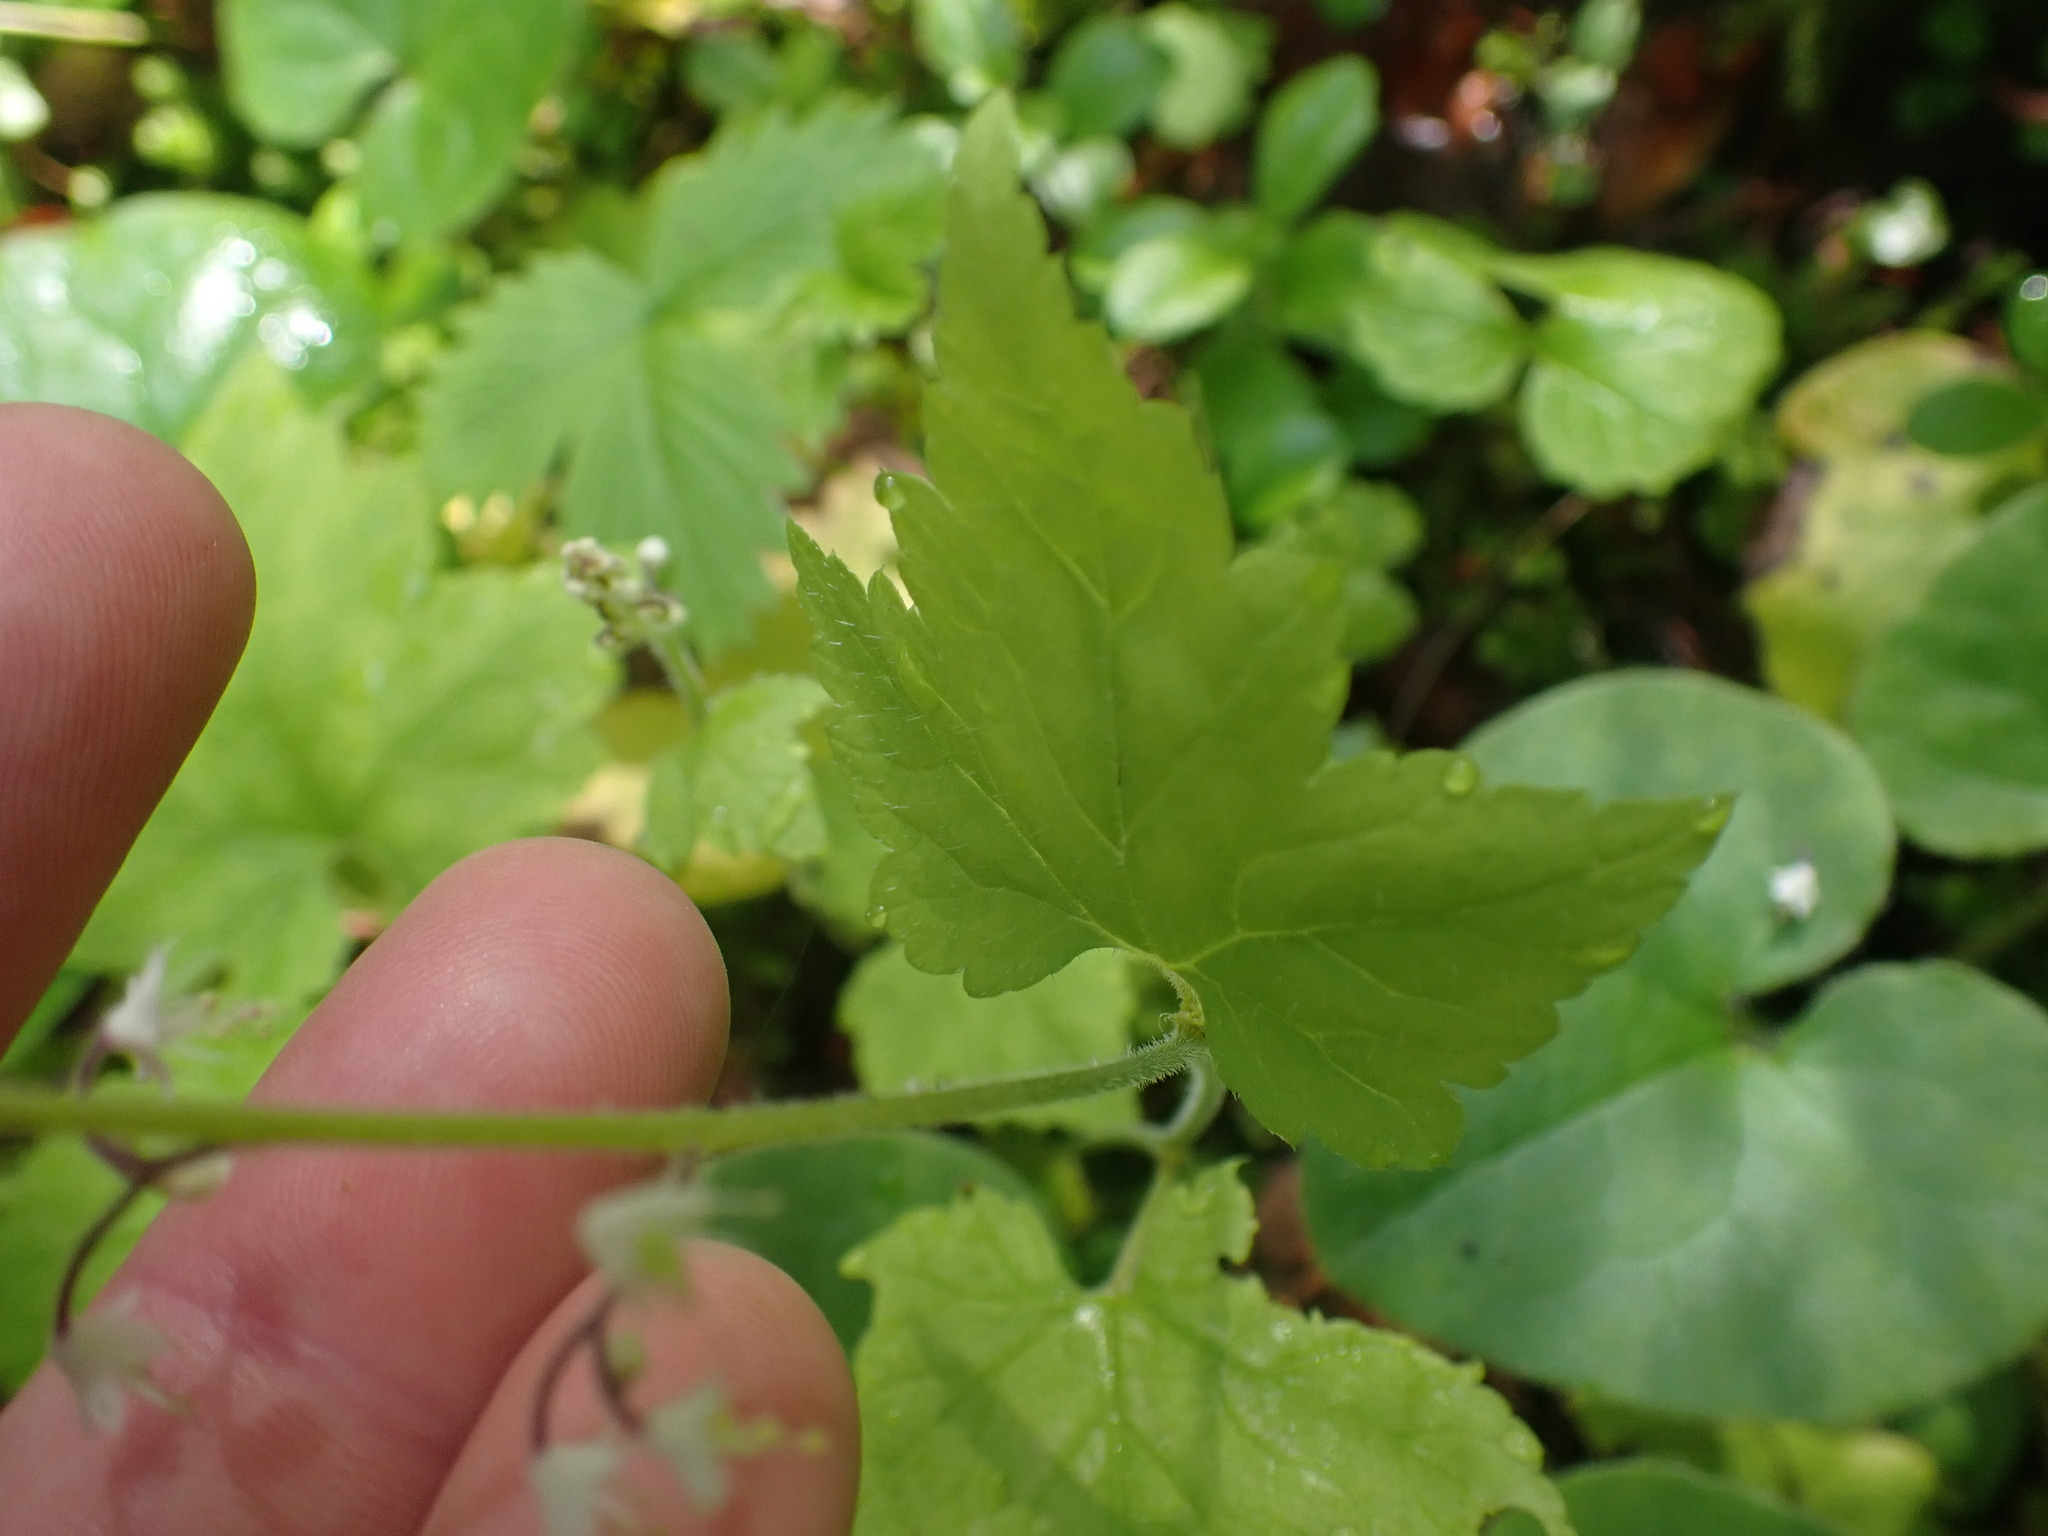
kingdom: Plantae
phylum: Tracheophyta
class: Magnoliopsida
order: Saxifragales
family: Saxifragaceae
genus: Tiarella
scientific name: Tiarella trifoliata
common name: Sugar-scoop
